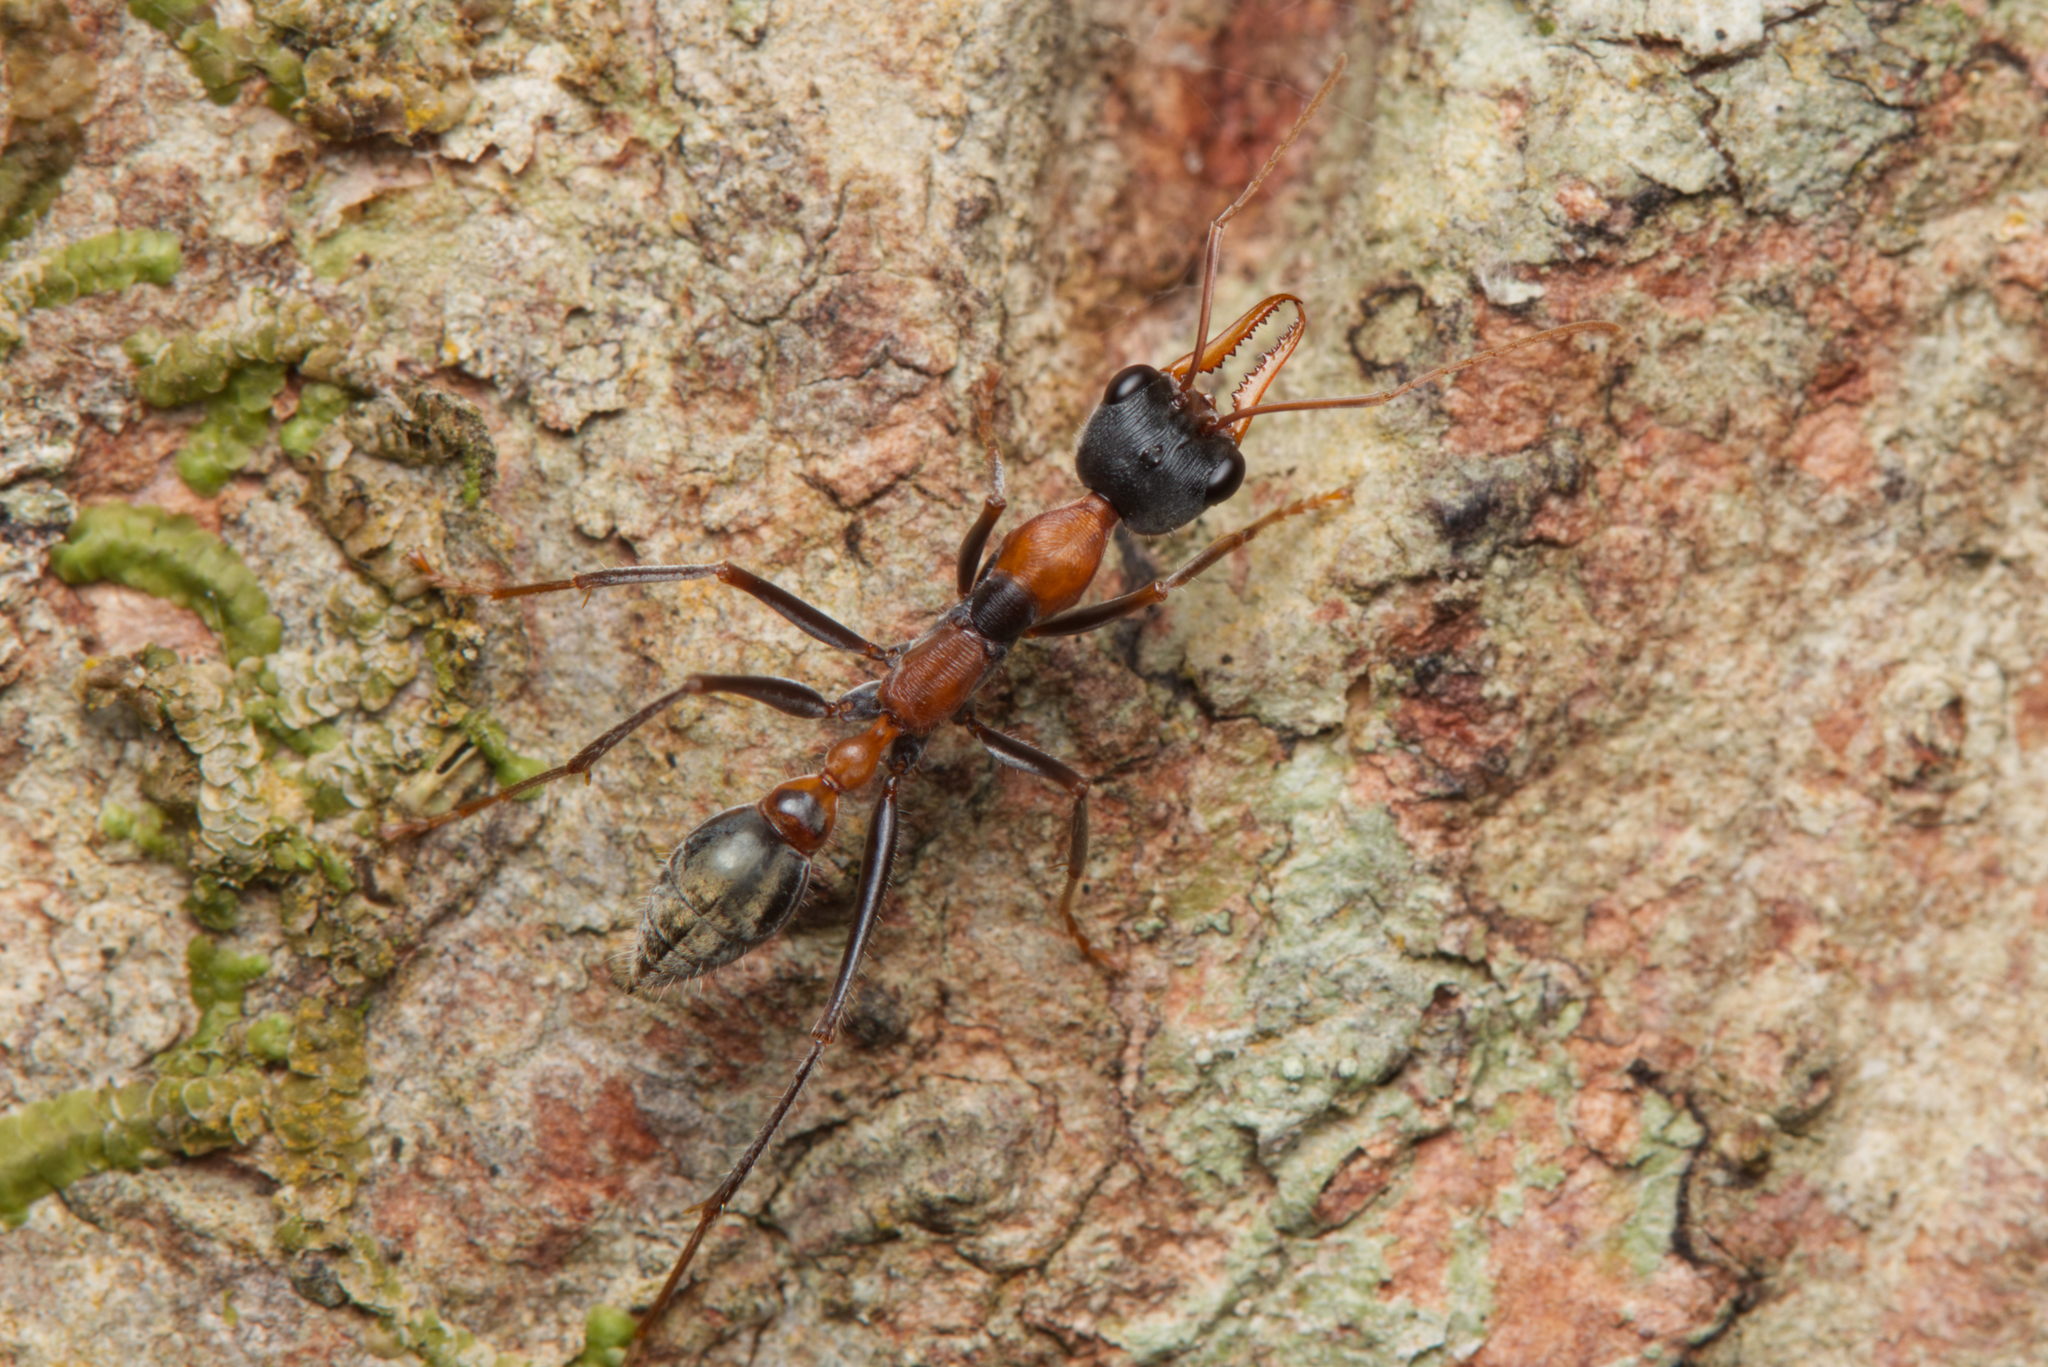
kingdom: Animalia
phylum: Arthropoda
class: Insecta
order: Hymenoptera
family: Formicidae
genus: Myrmecia
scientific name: Myrmecia nigrocincta
